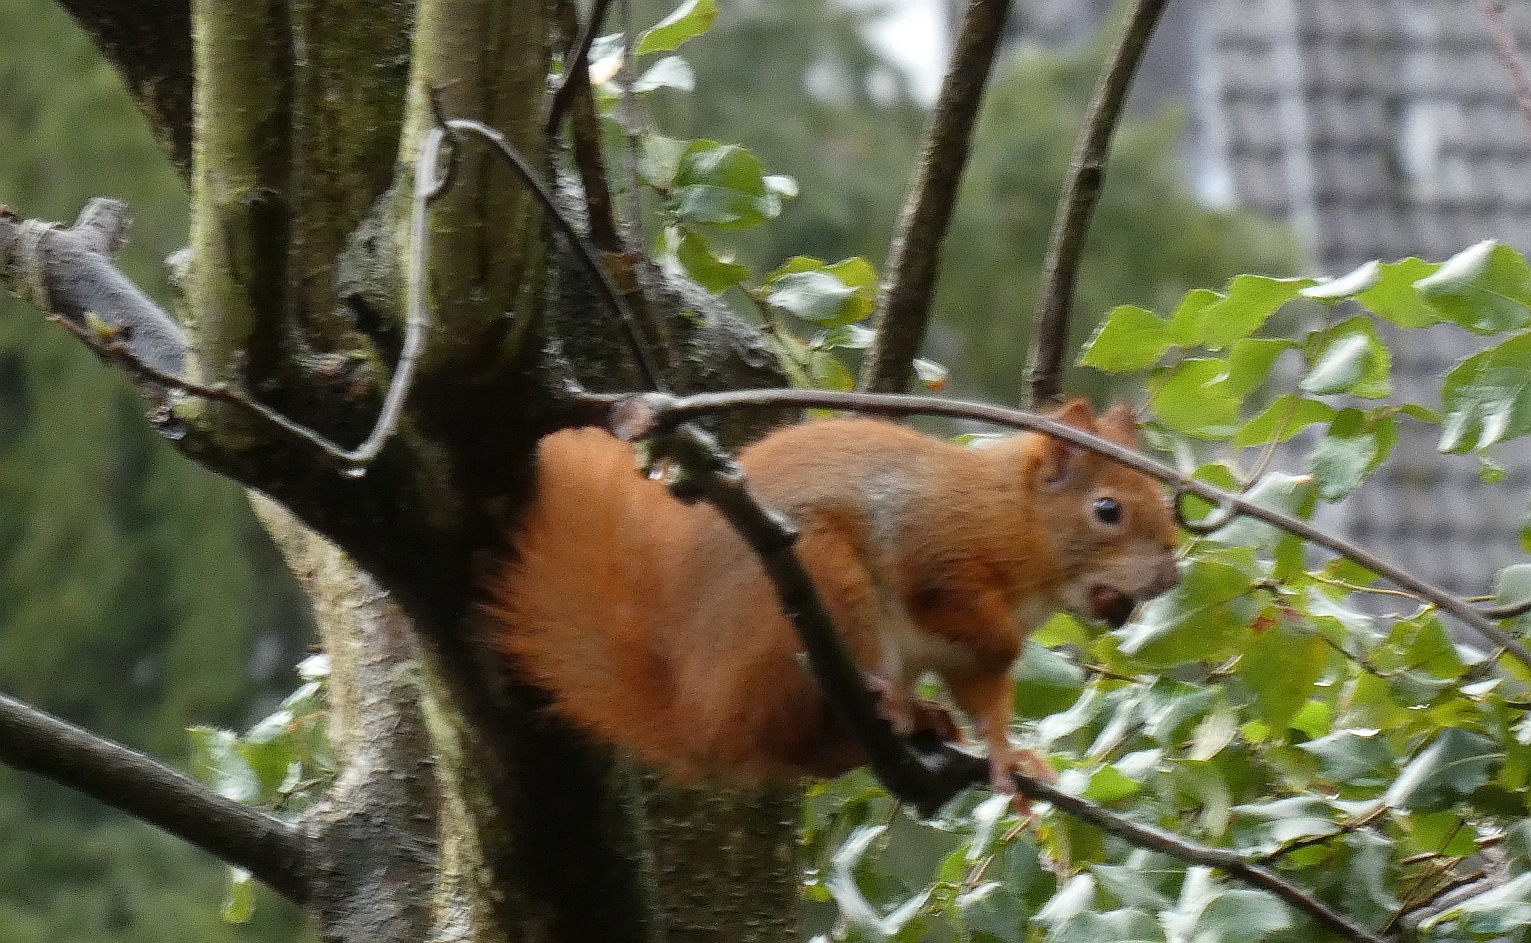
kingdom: Animalia
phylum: Chordata
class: Mammalia
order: Rodentia
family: Sciuridae
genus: Sciurus
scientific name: Sciurus vulgaris
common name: Eurasian red squirrel
